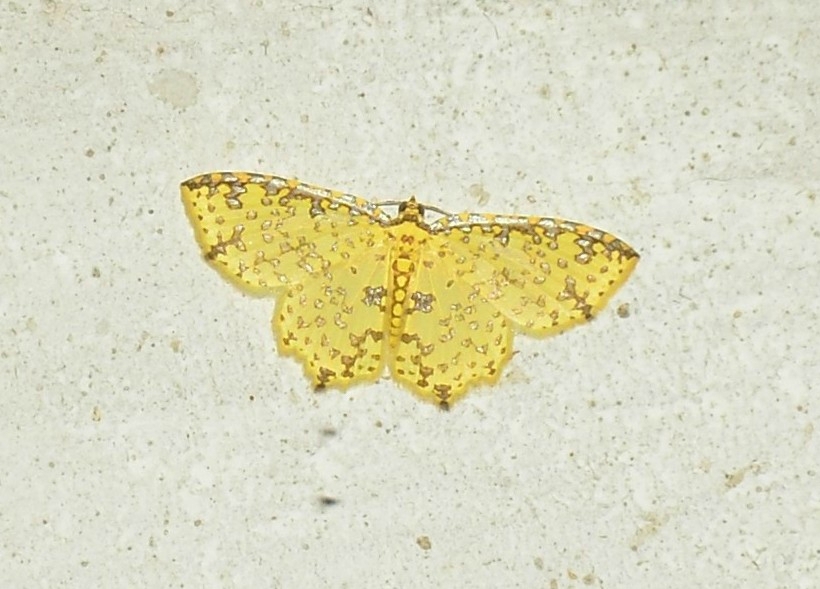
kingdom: Animalia
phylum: Arthropoda
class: Insecta
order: Lepidoptera
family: Geometridae
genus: Polynesia
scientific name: Polynesia sunandava
